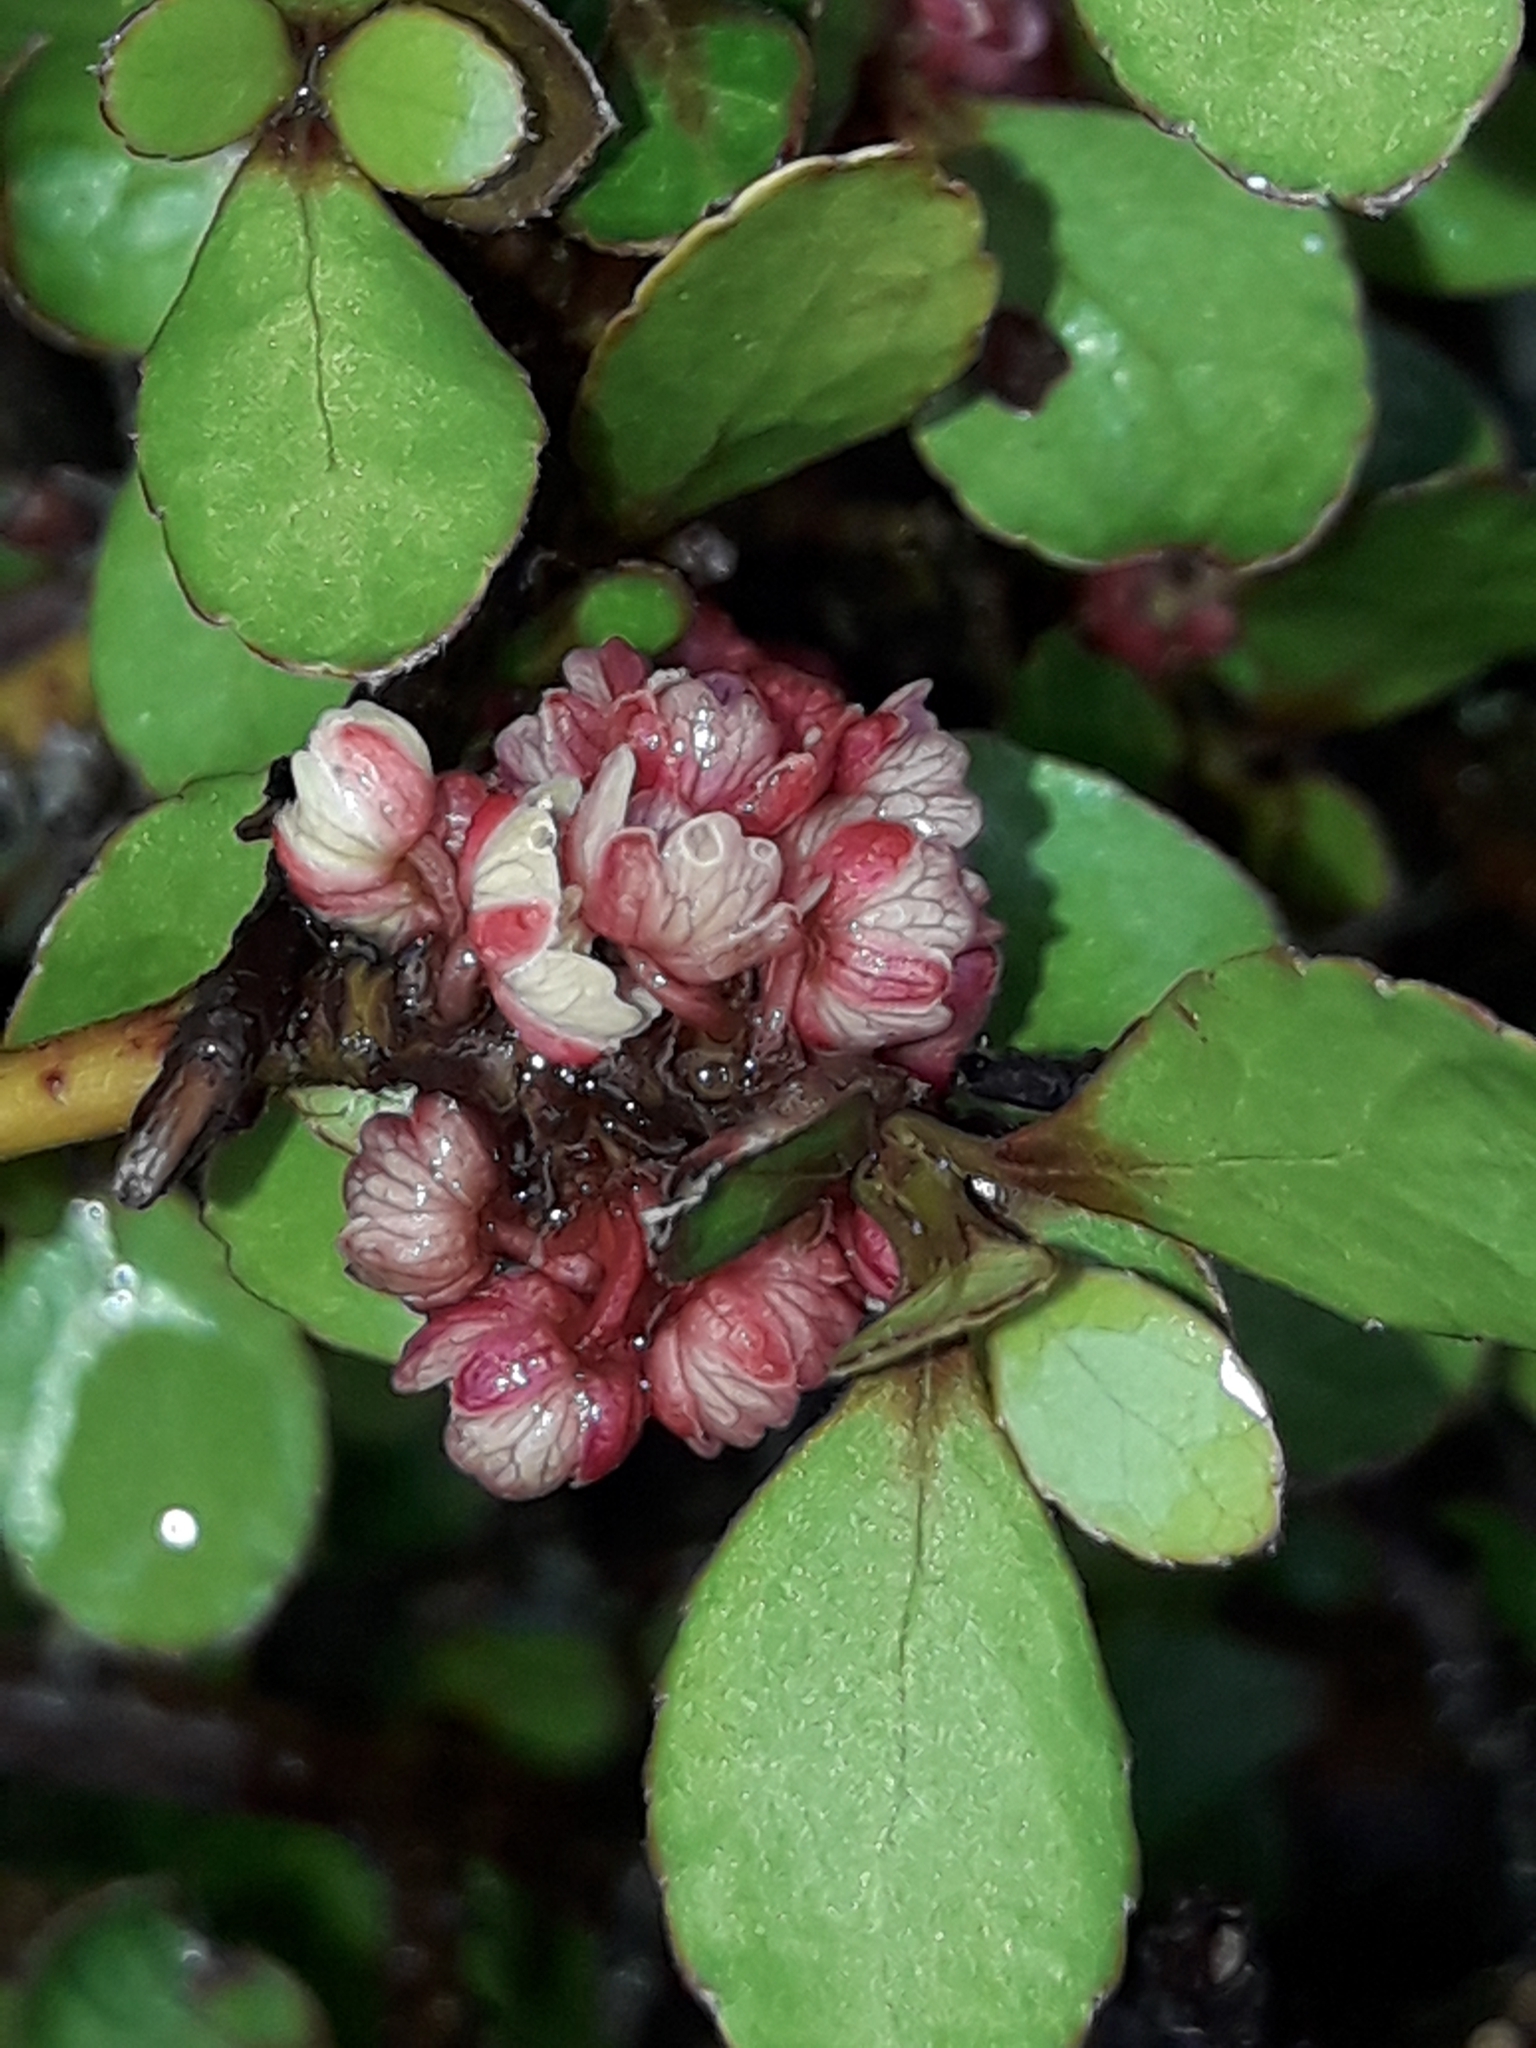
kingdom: Plantae
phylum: Tracheophyta
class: Magnoliopsida
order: Oxalidales
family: Elaeocarpaceae
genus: Aristotelia
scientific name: Aristotelia fruticosa
